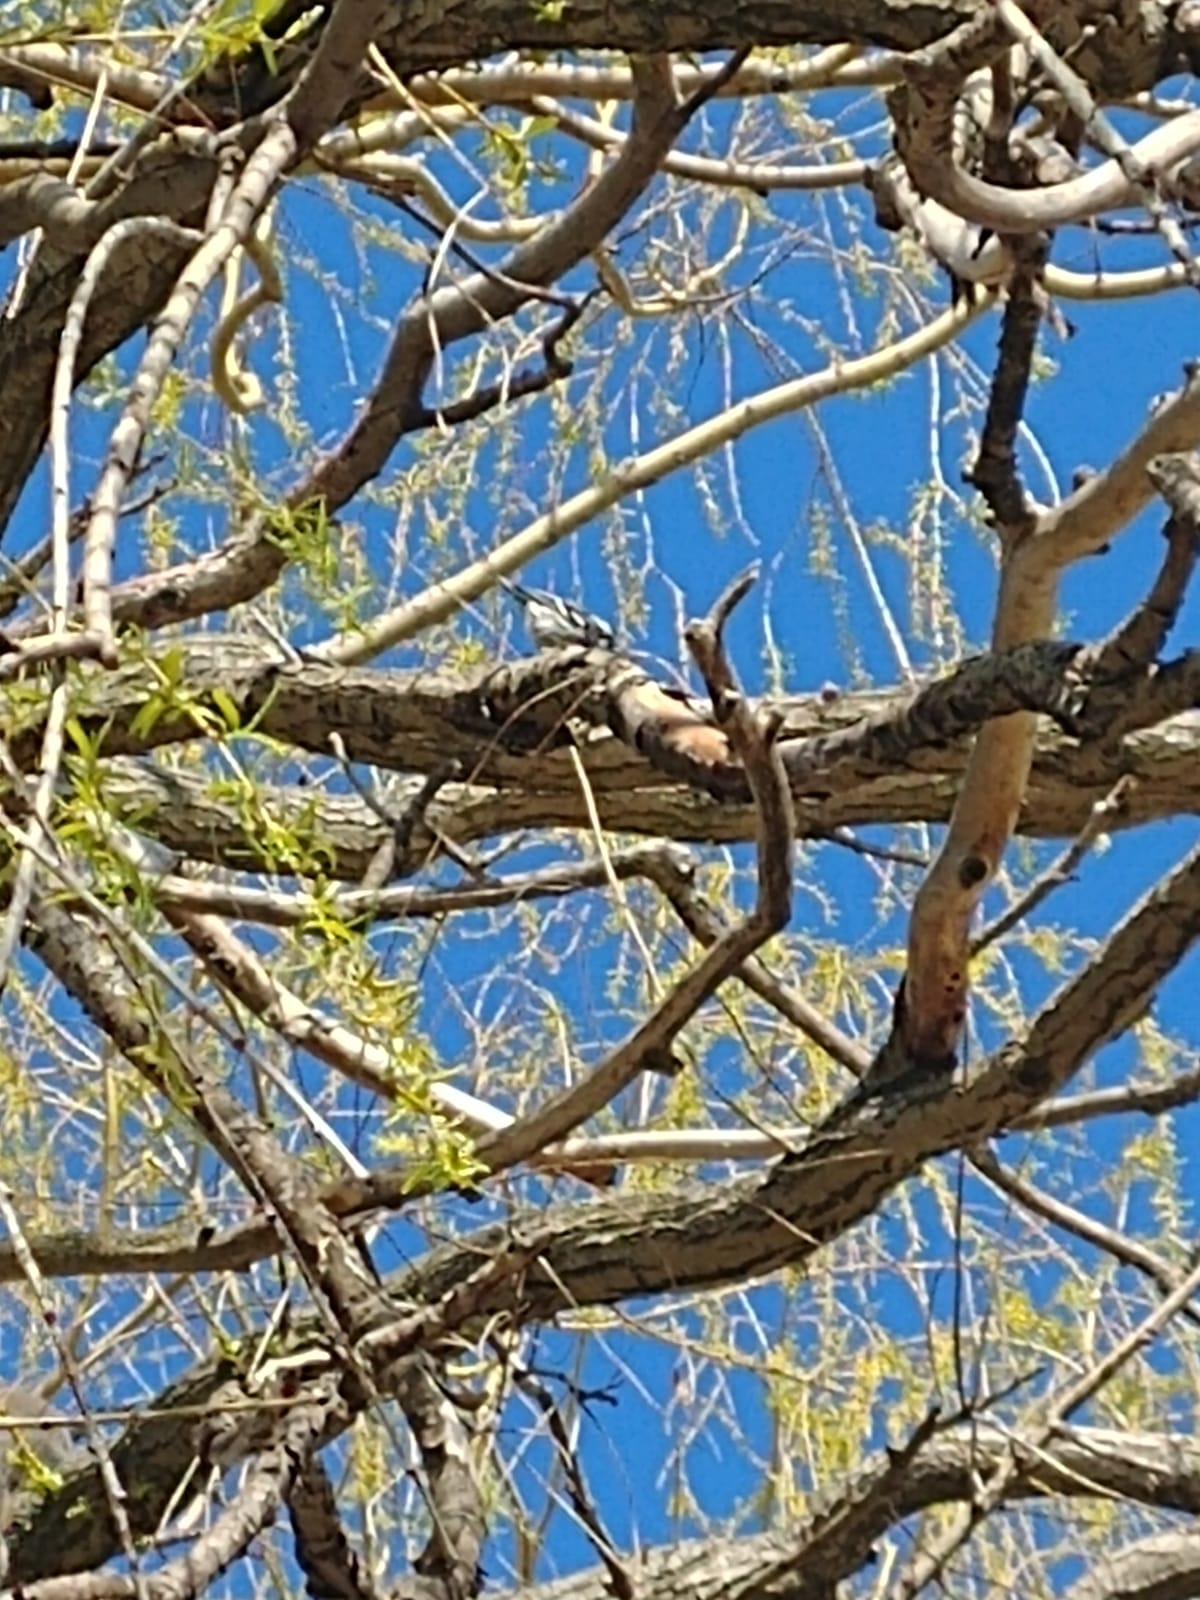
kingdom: Animalia
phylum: Chordata
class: Aves
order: Passeriformes
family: Parulidae
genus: Mniotilta
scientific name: Mniotilta varia
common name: Black-and-white warbler
